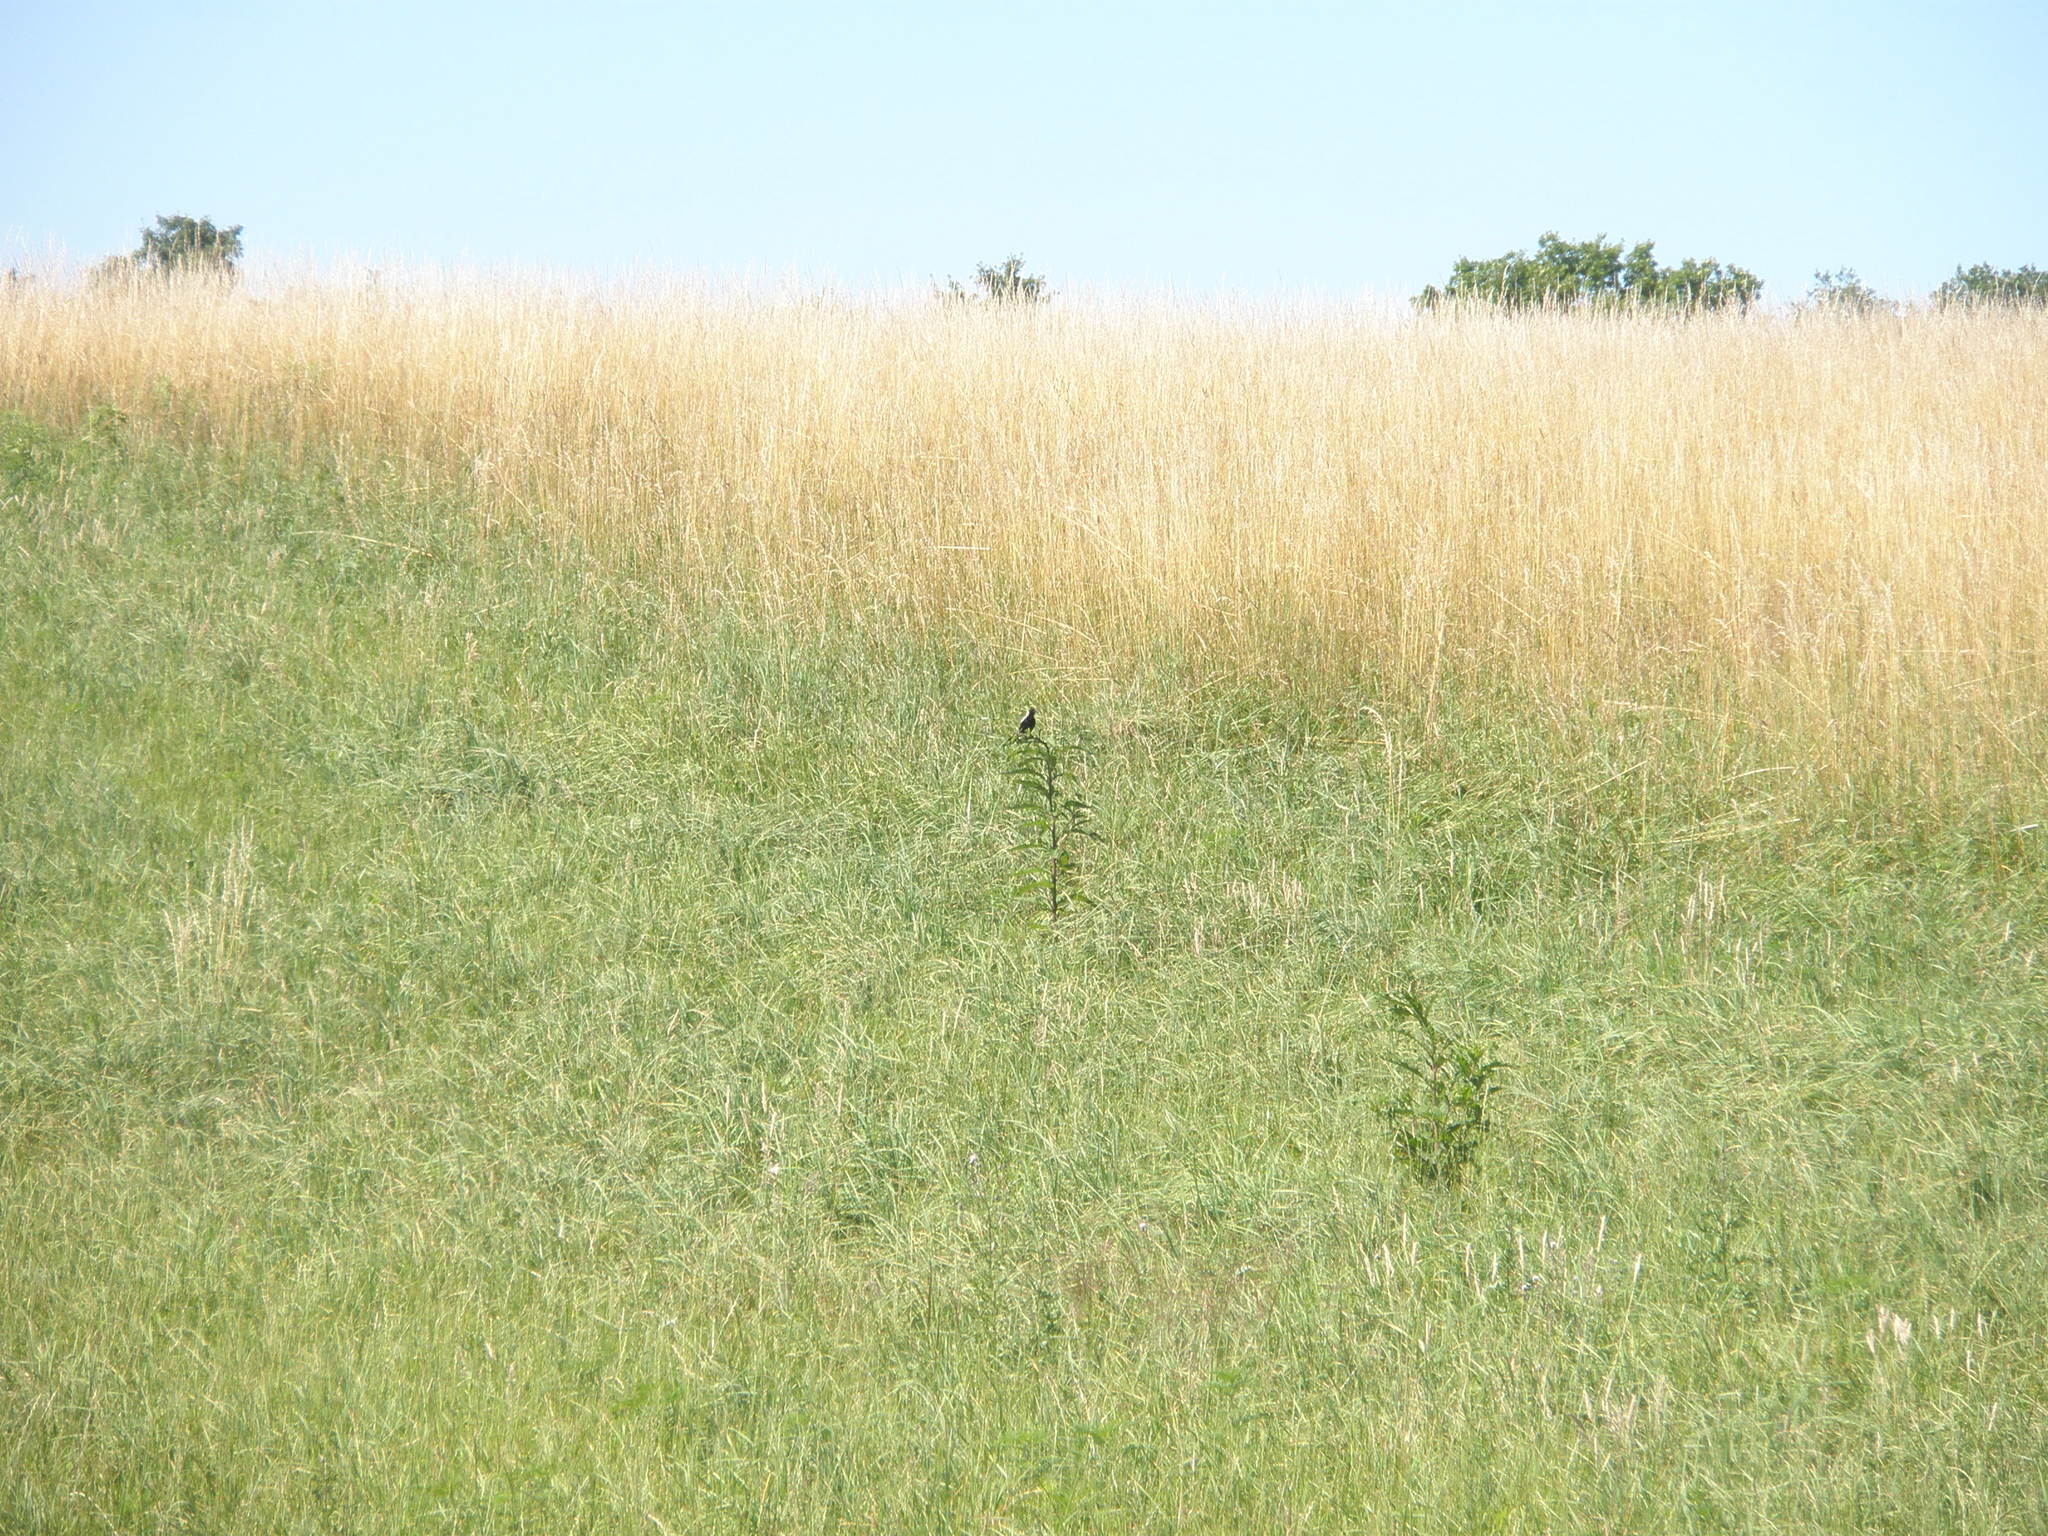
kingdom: Animalia
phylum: Chordata
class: Aves
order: Passeriformes
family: Icteridae
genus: Dolichonyx
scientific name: Dolichonyx oryzivorus
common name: Bobolink
